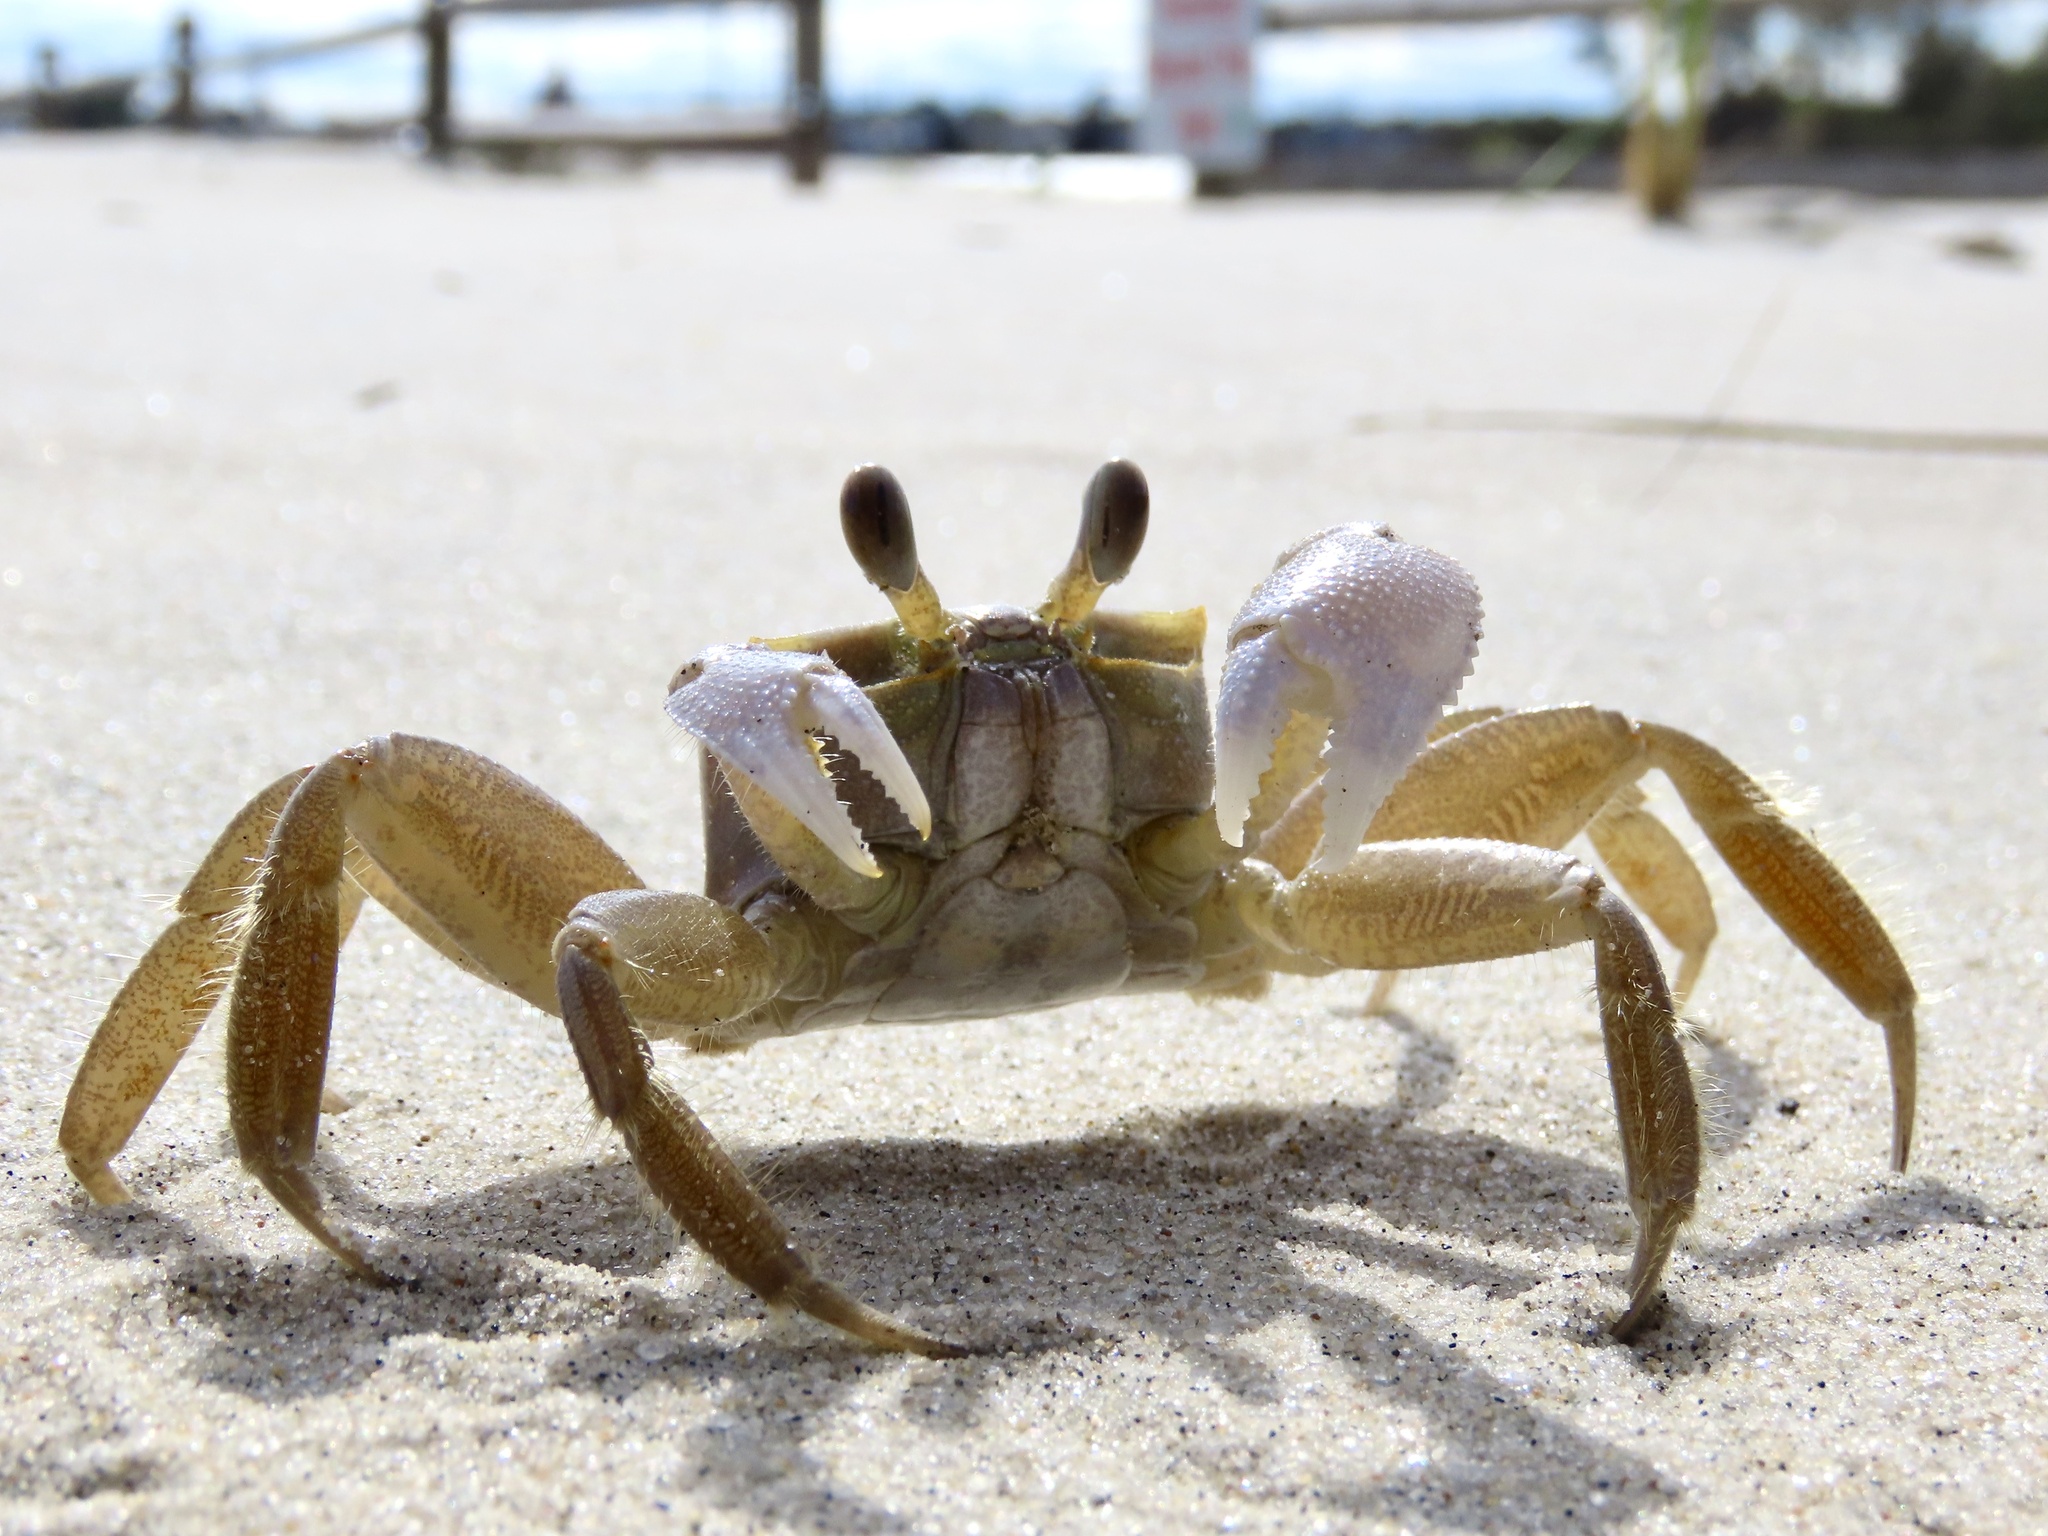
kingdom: Animalia
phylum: Arthropoda
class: Malacostraca
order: Decapoda
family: Ocypodidae
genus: Ocypode
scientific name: Ocypode quadrata
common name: Ghost crab
